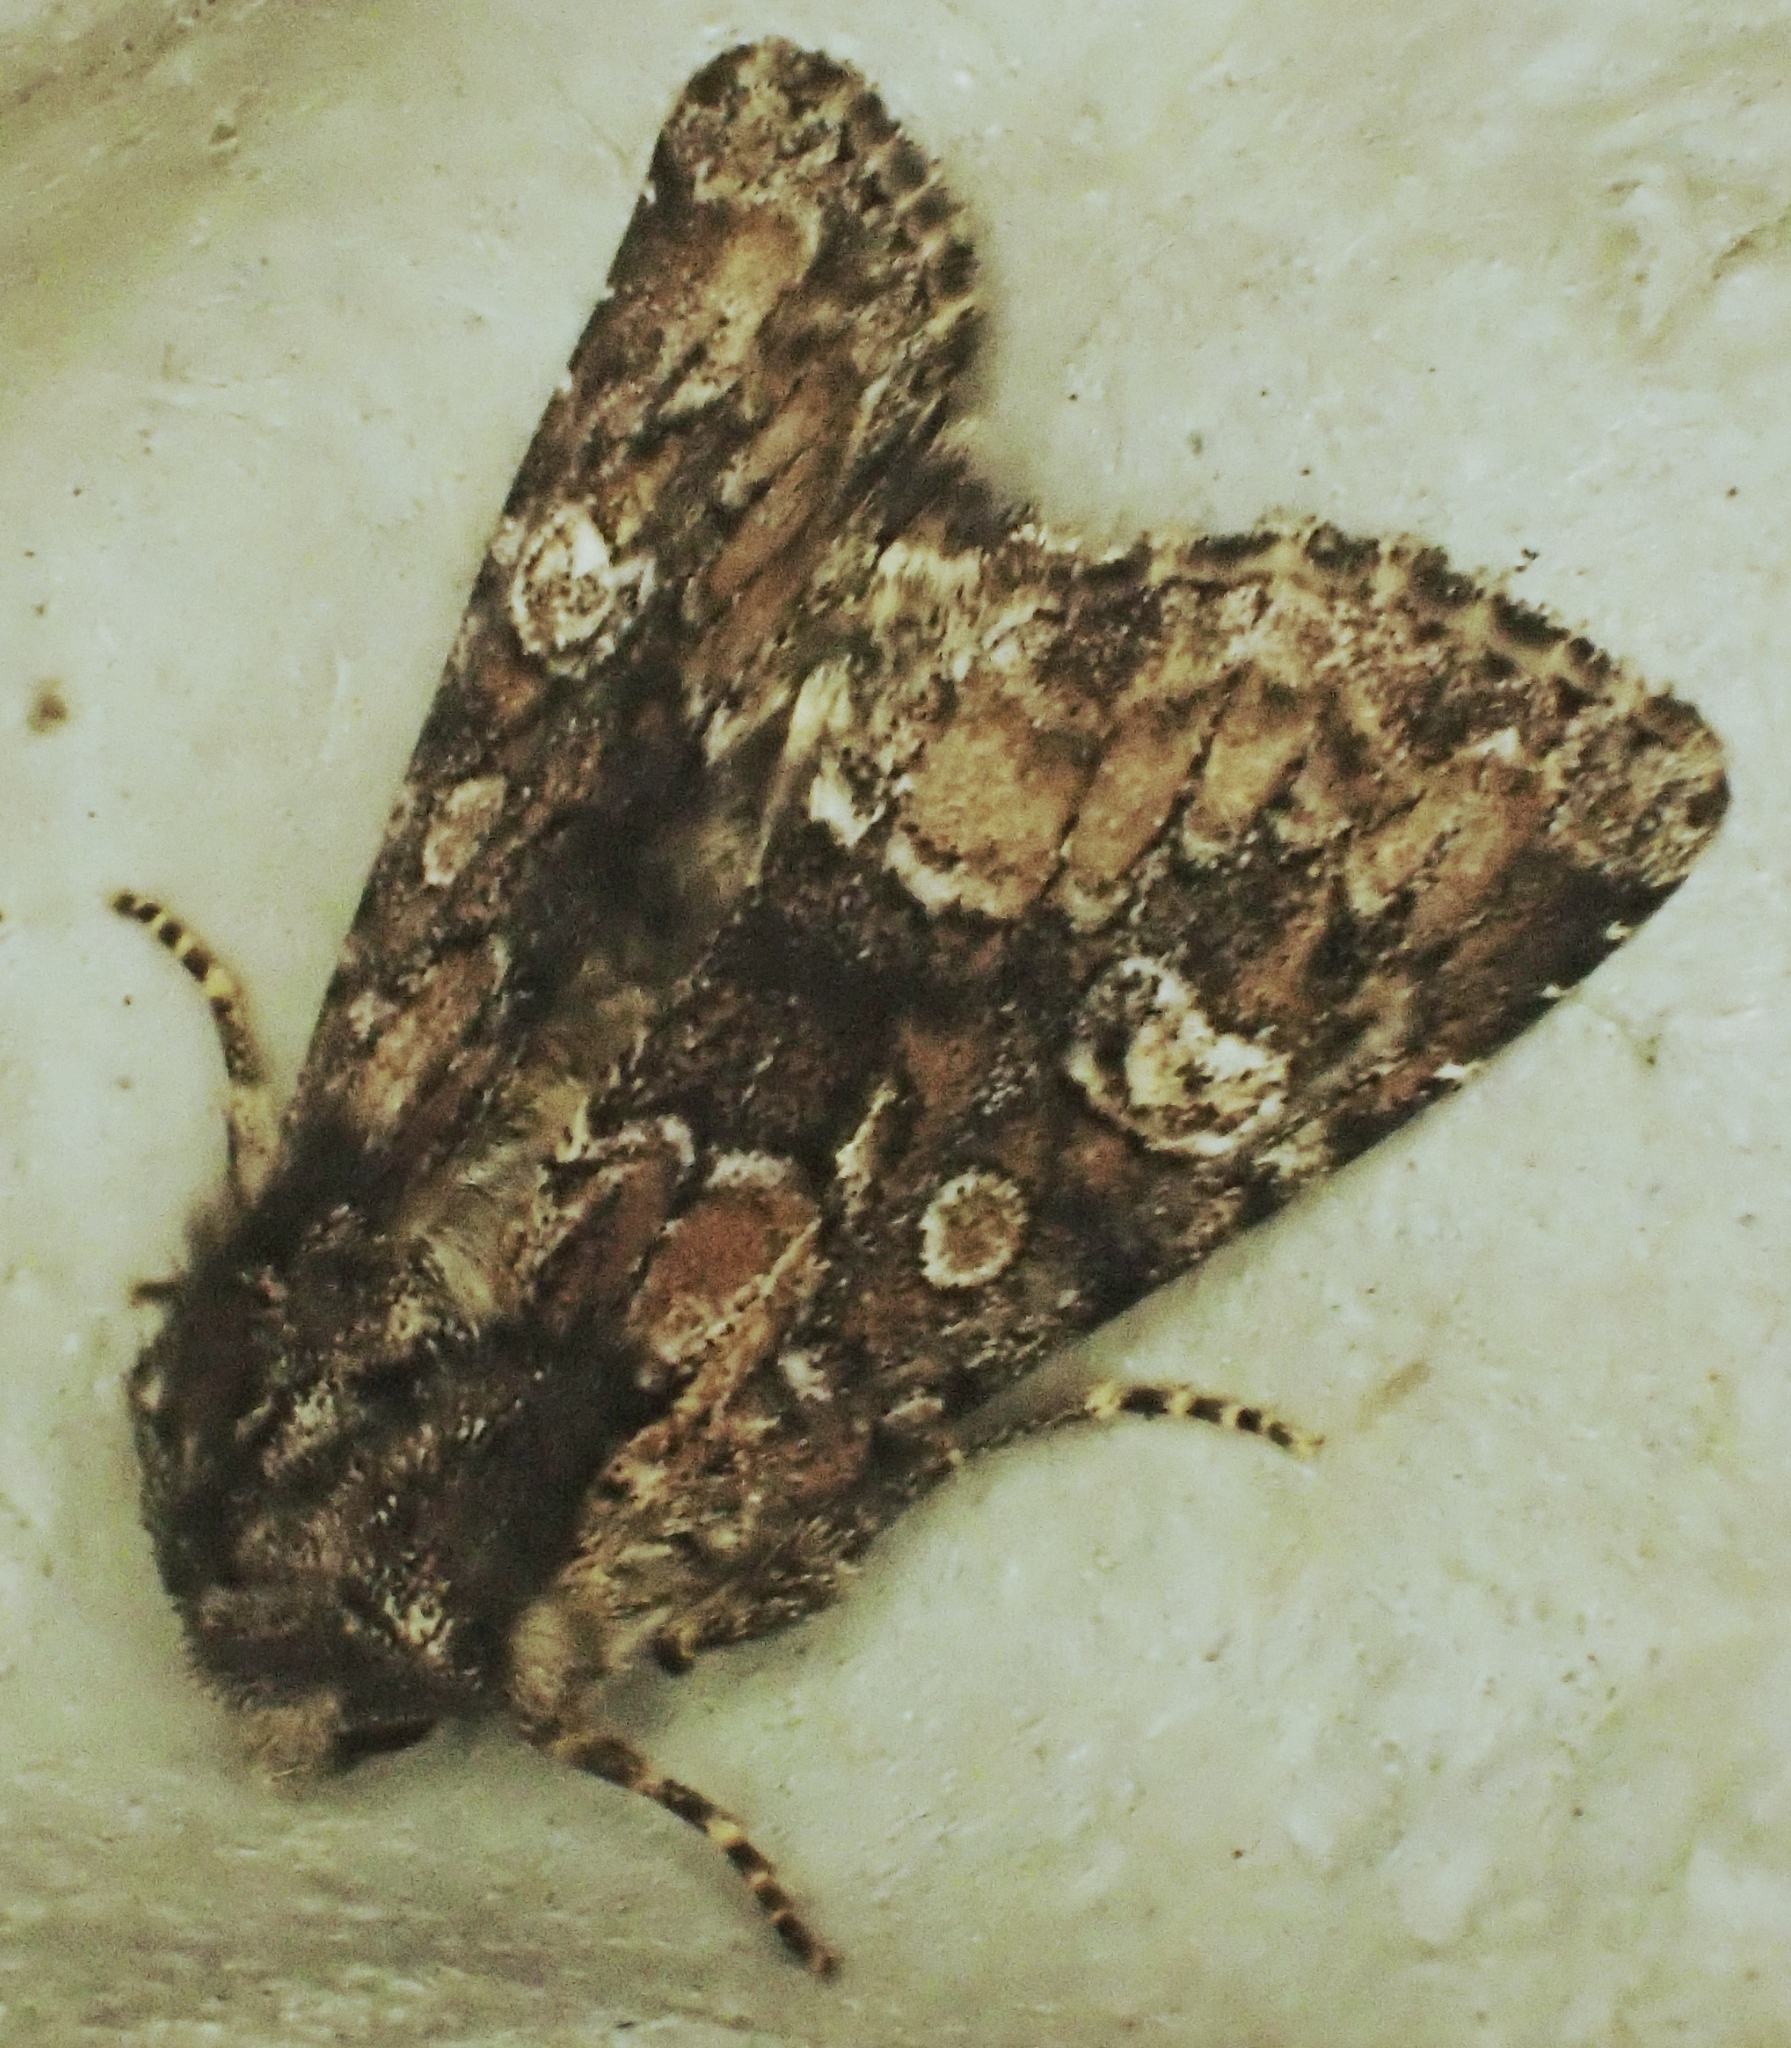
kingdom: Animalia
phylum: Arthropoda
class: Insecta
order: Lepidoptera
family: Noctuidae
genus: Apamea
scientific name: Apamea illyria
